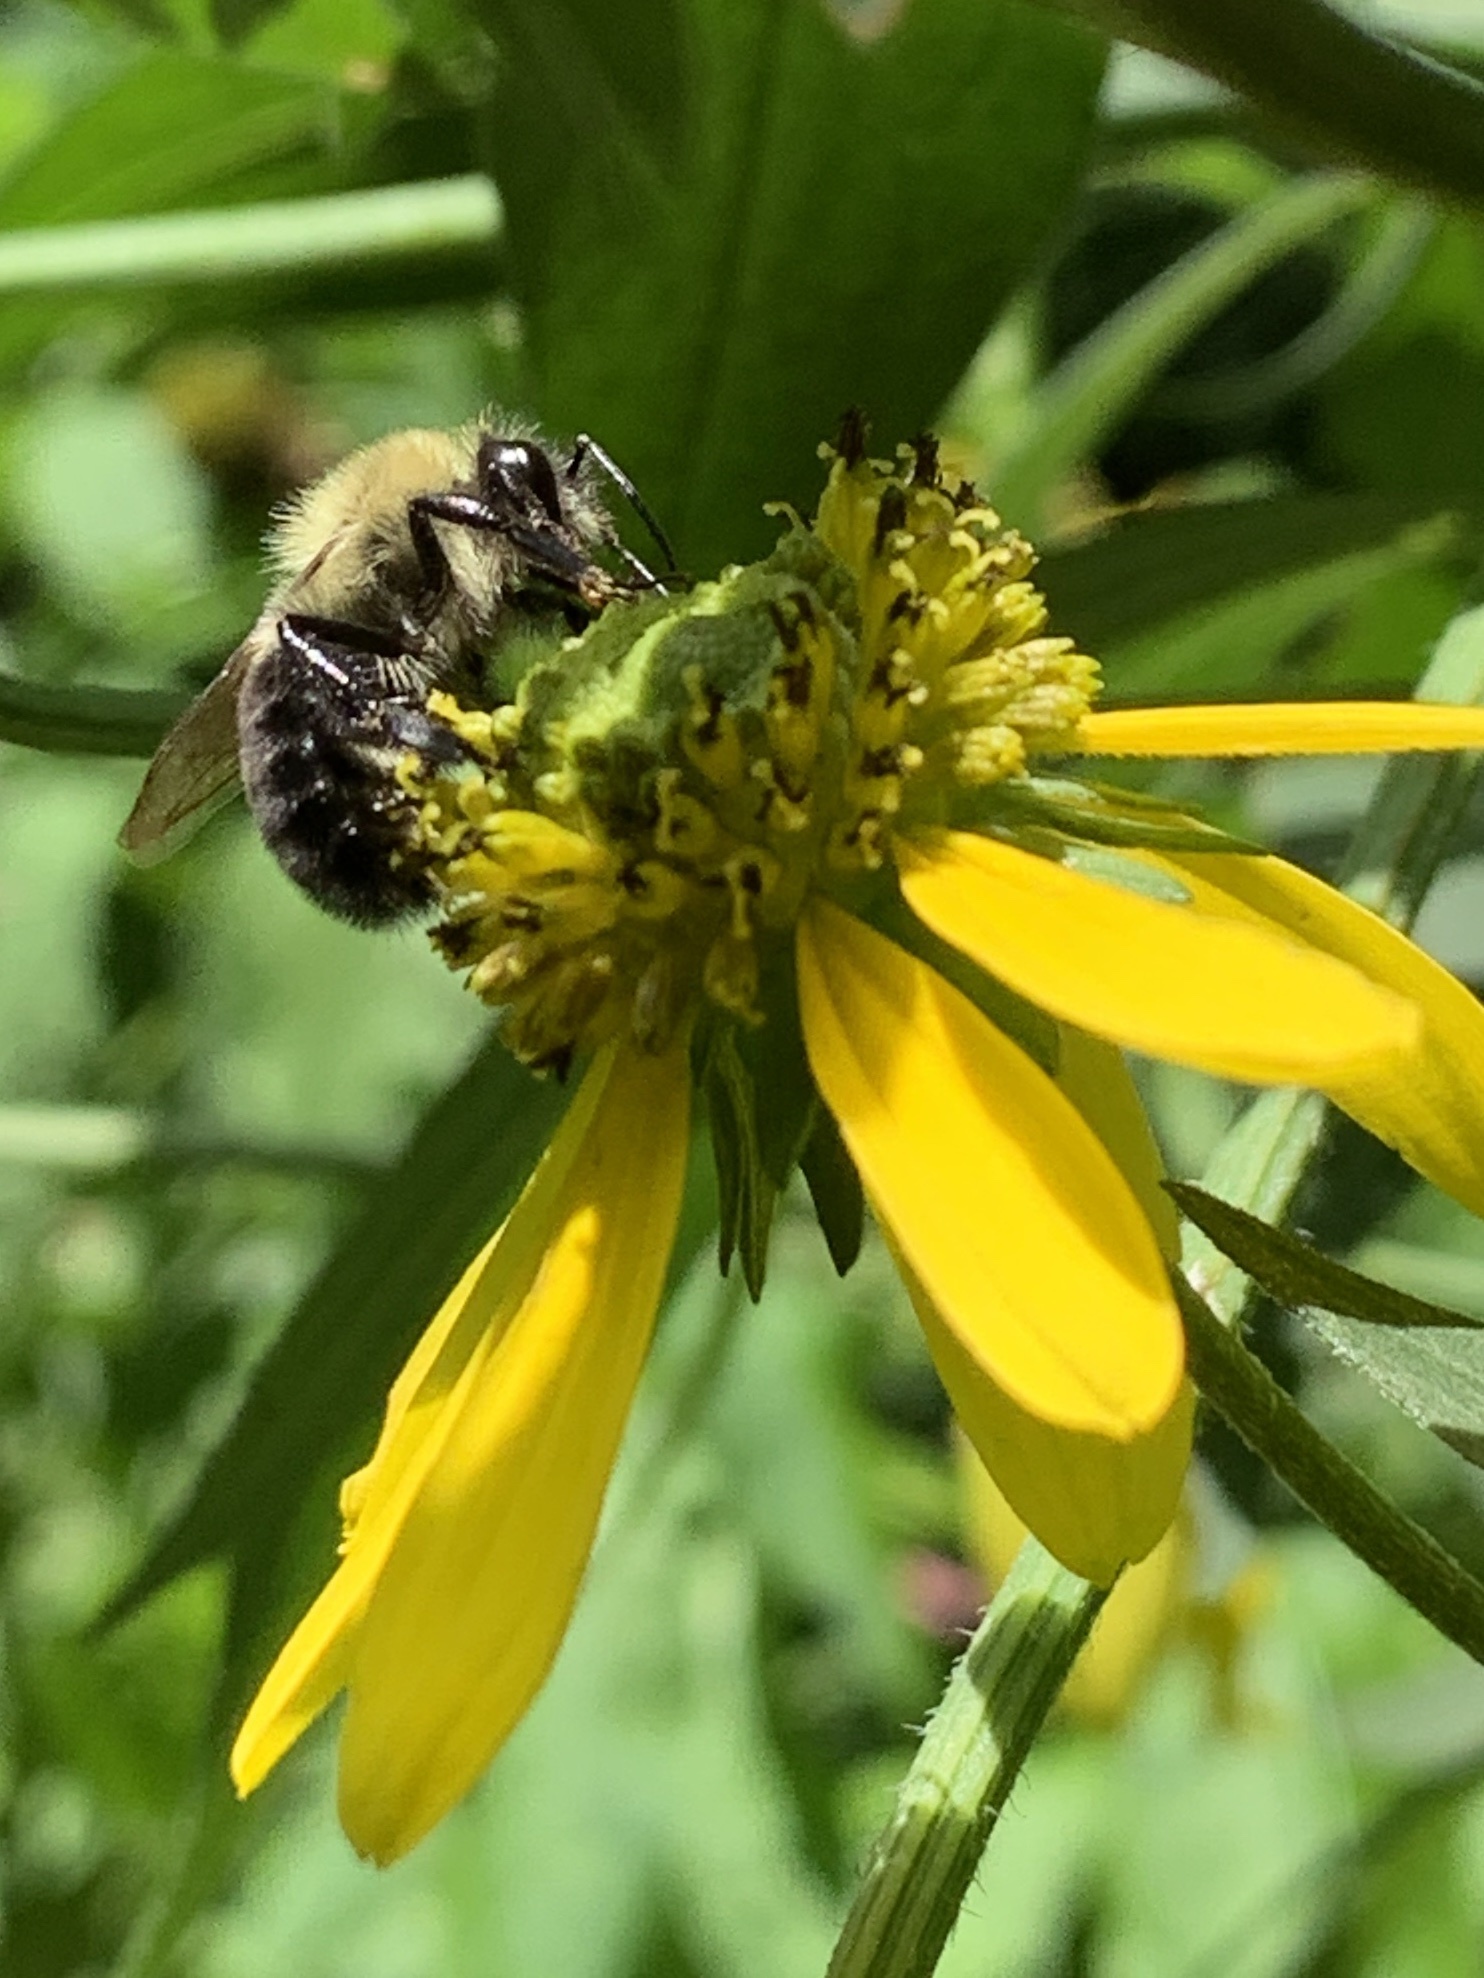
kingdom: Animalia
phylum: Arthropoda
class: Insecta
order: Hymenoptera
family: Apidae
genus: Bombus
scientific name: Bombus impatiens
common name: Common eastern bumble bee
